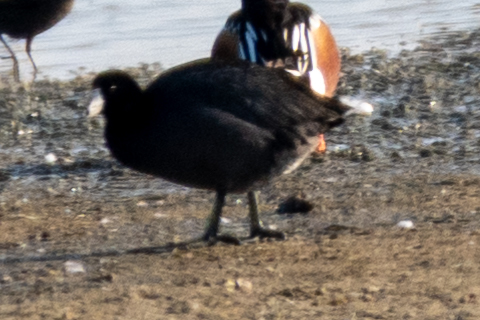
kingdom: Animalia
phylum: Chordata
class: Aves
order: Gruiformes
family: Rallidae
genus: Fulica
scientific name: Fulica americana
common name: American coot
